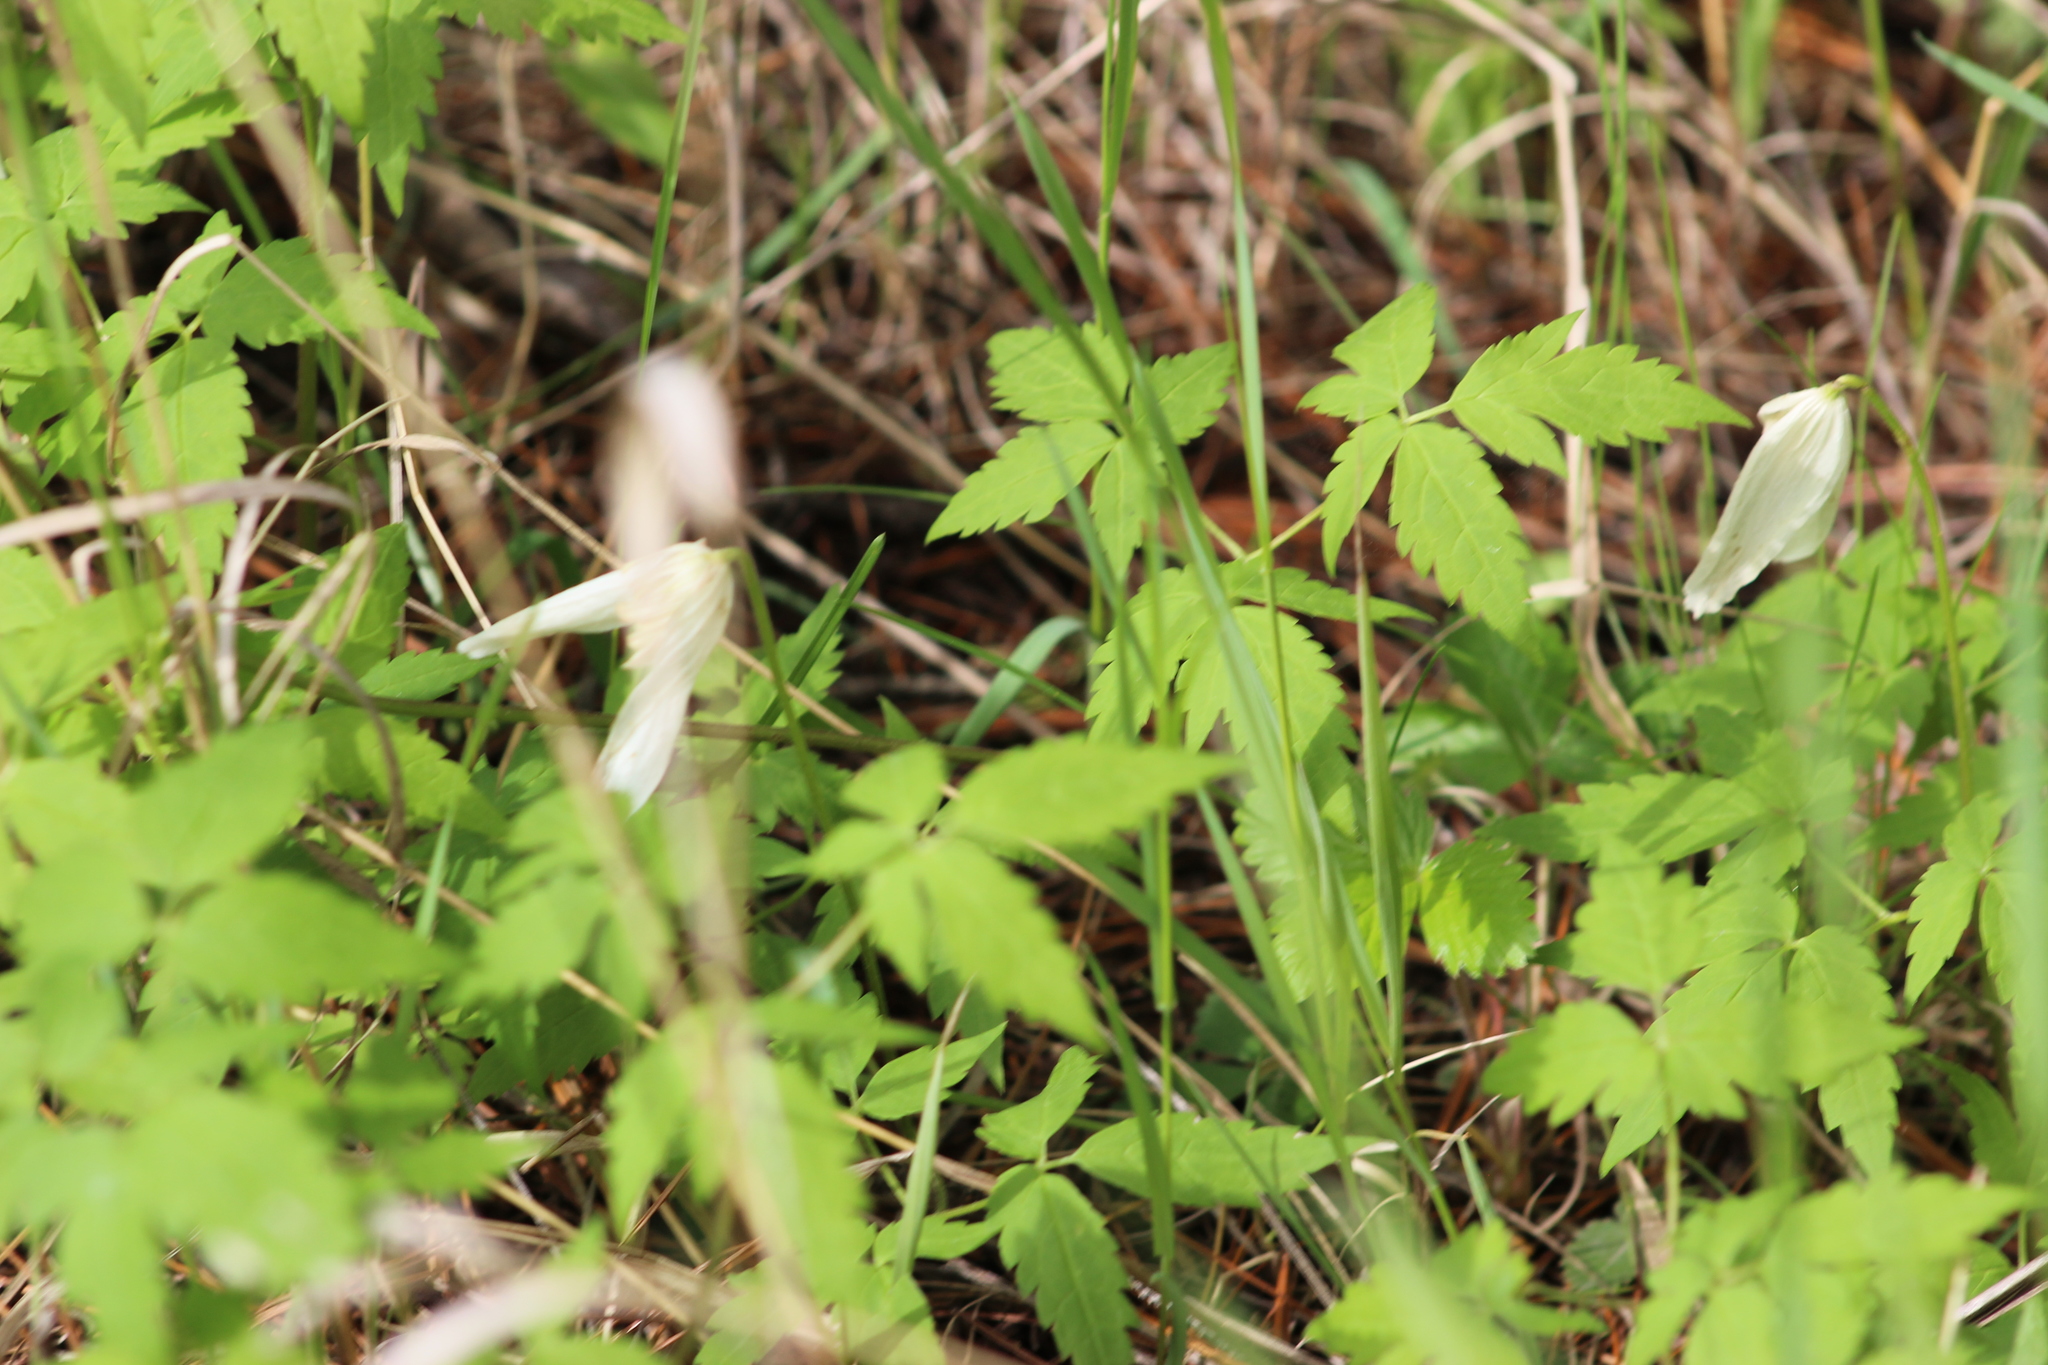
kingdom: Plantae
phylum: Tracheophyta
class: Magnoliopsida
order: Ranunculales
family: Ranunculaceae
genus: Clematis
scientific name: Clematis sibirica
